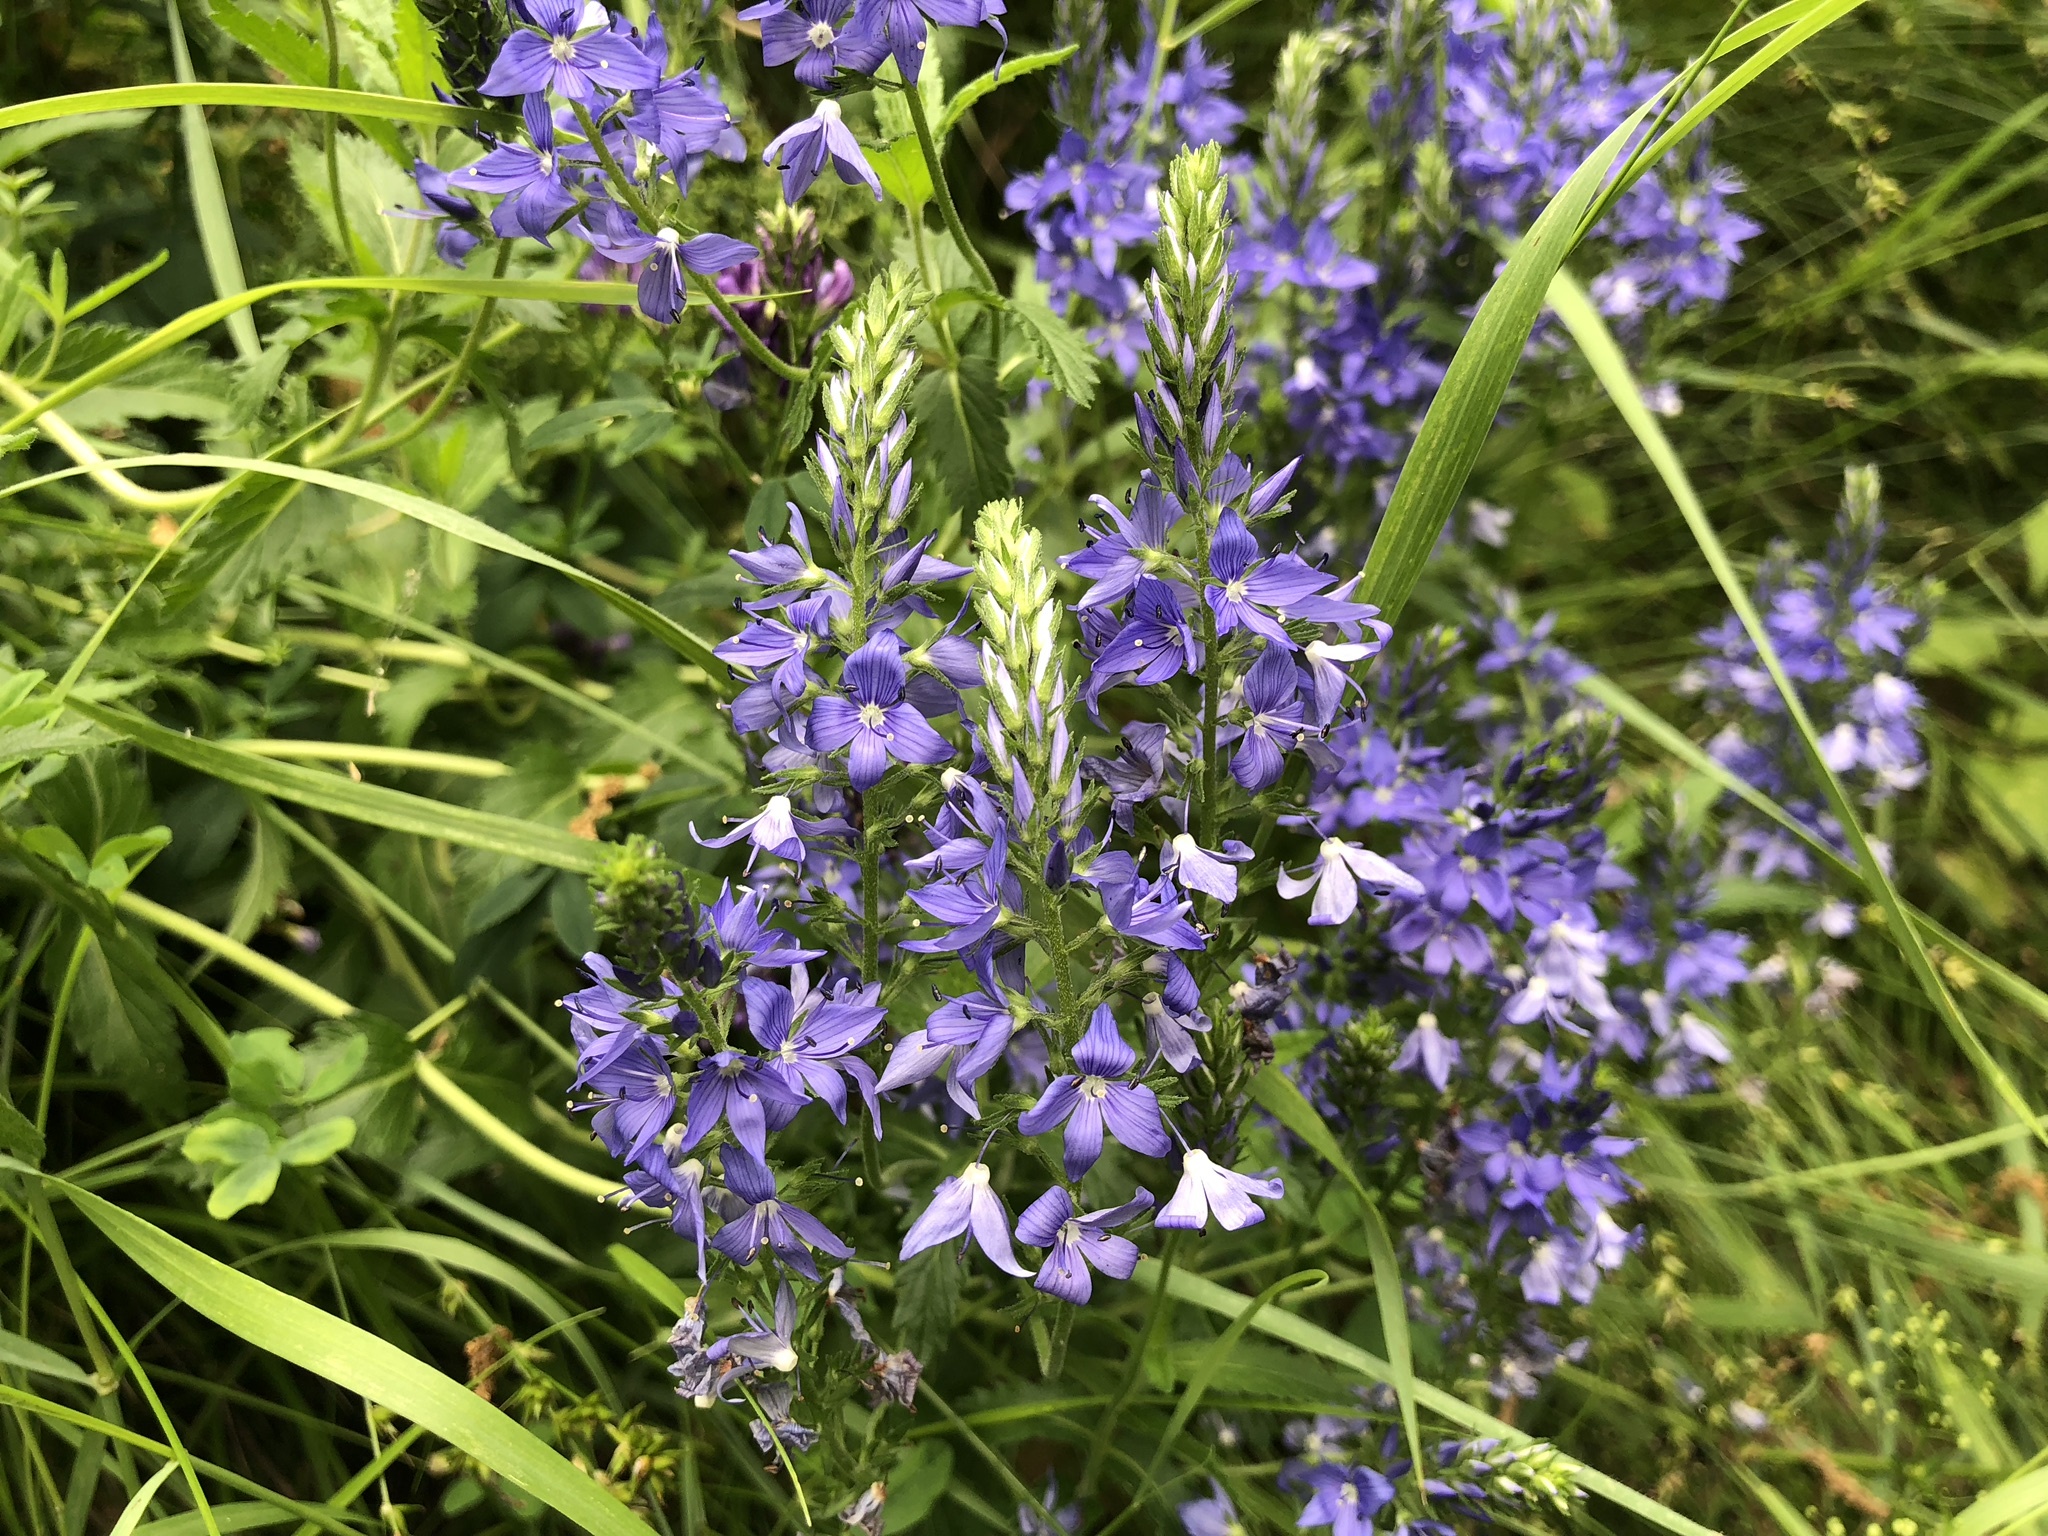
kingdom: Plantae
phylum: Tracheophyta
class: Magnoliopsida
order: Lamiales
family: Plantaginaceae
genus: Veronica
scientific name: Veronica teucrium
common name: Large speedwell
